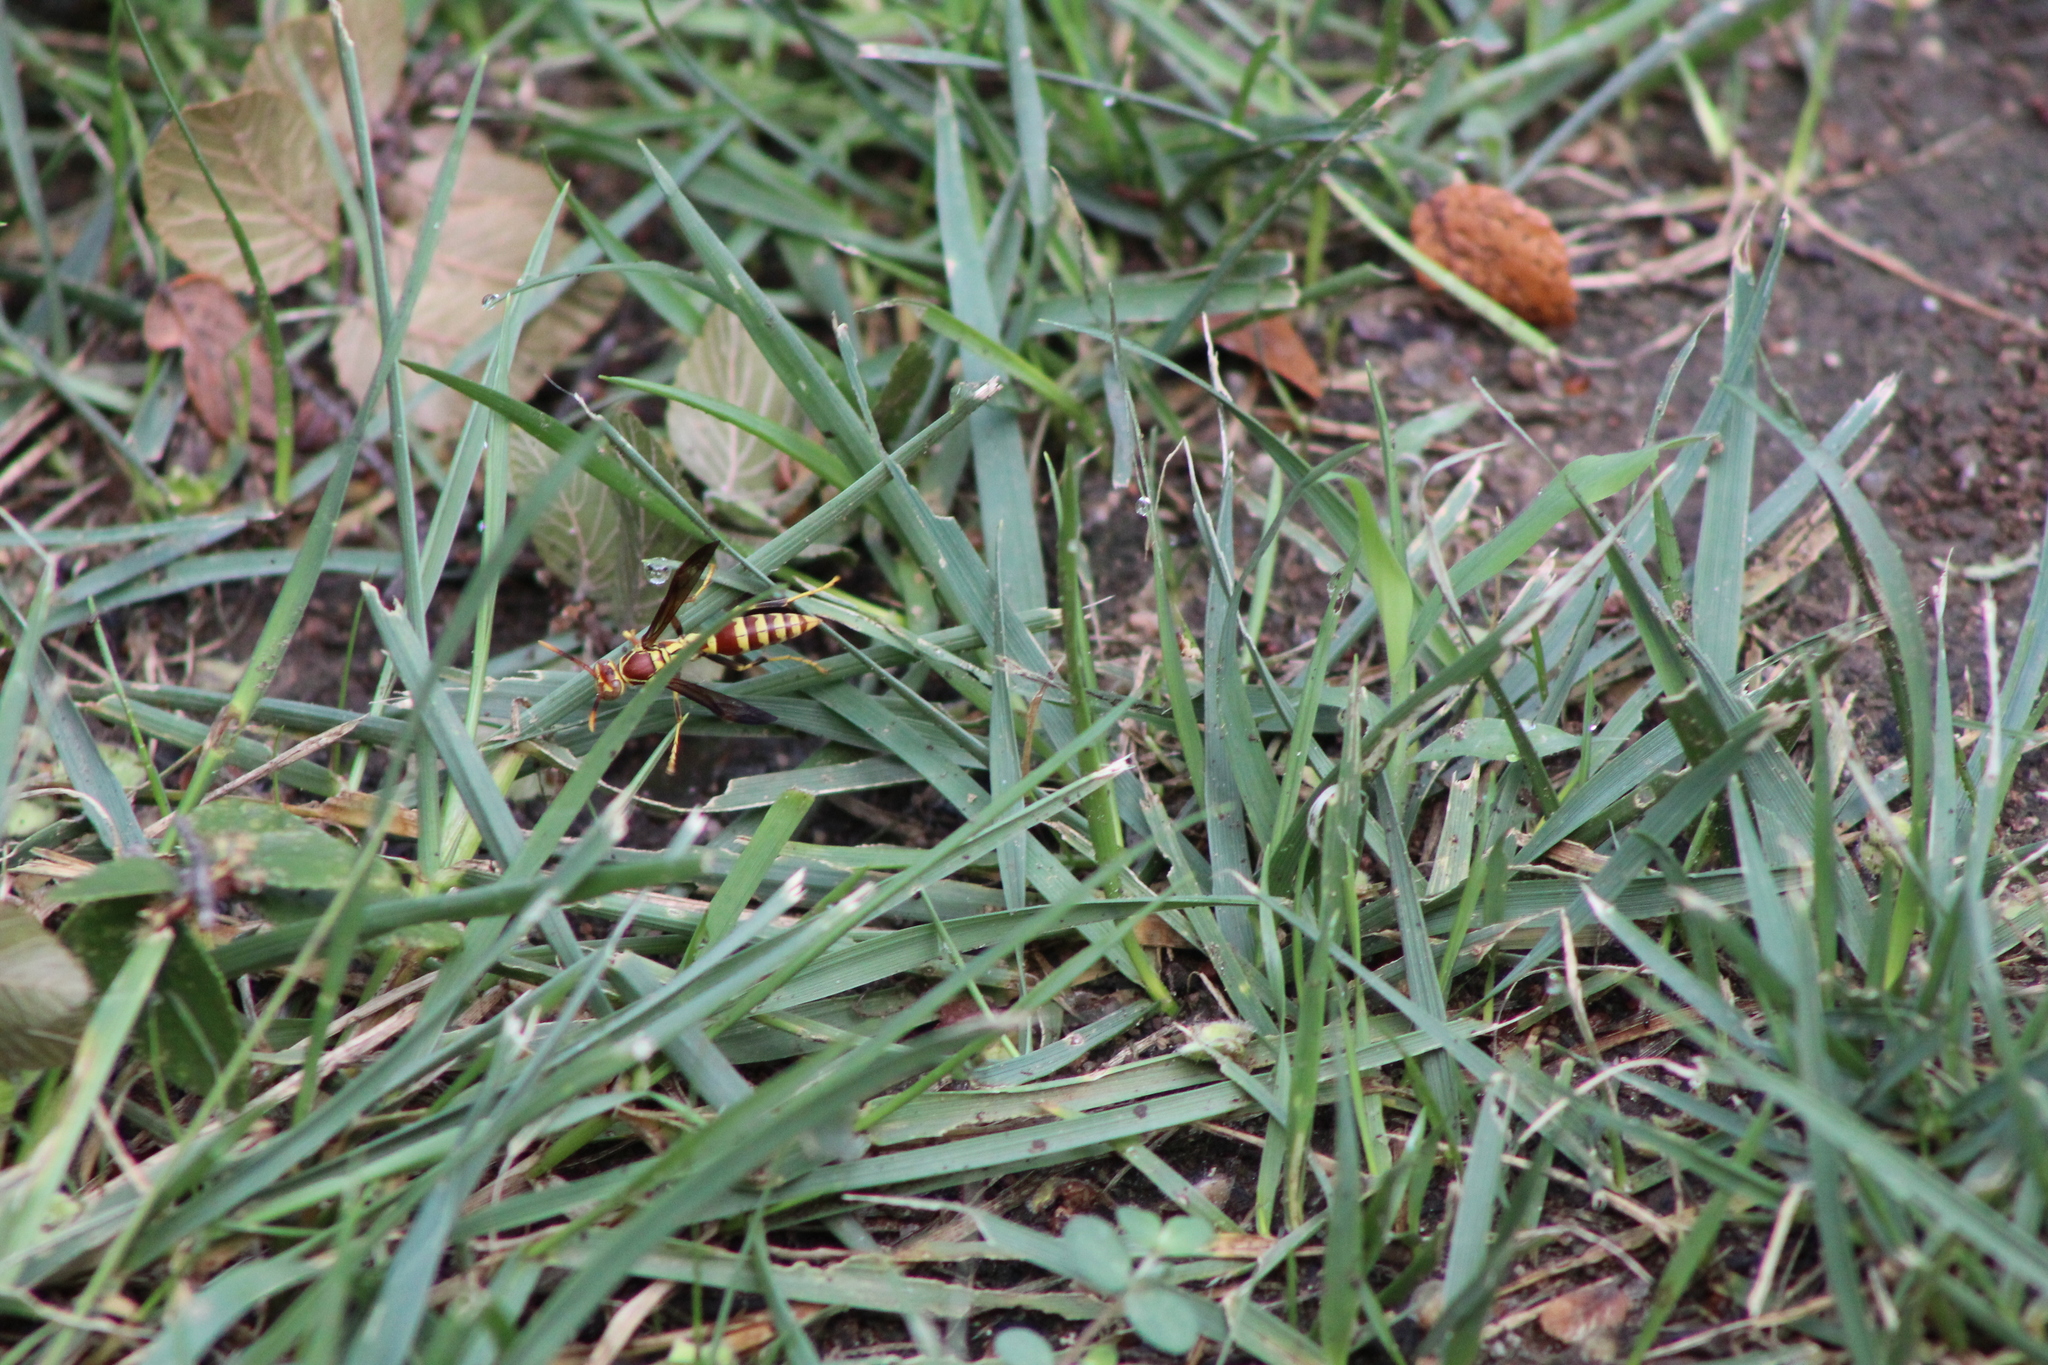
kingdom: Animalia
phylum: Arthropoda
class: Insecta
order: Hymenoptera
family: Eumenidae
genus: Polistes
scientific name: Polistes exclamans
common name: Paper wasp
